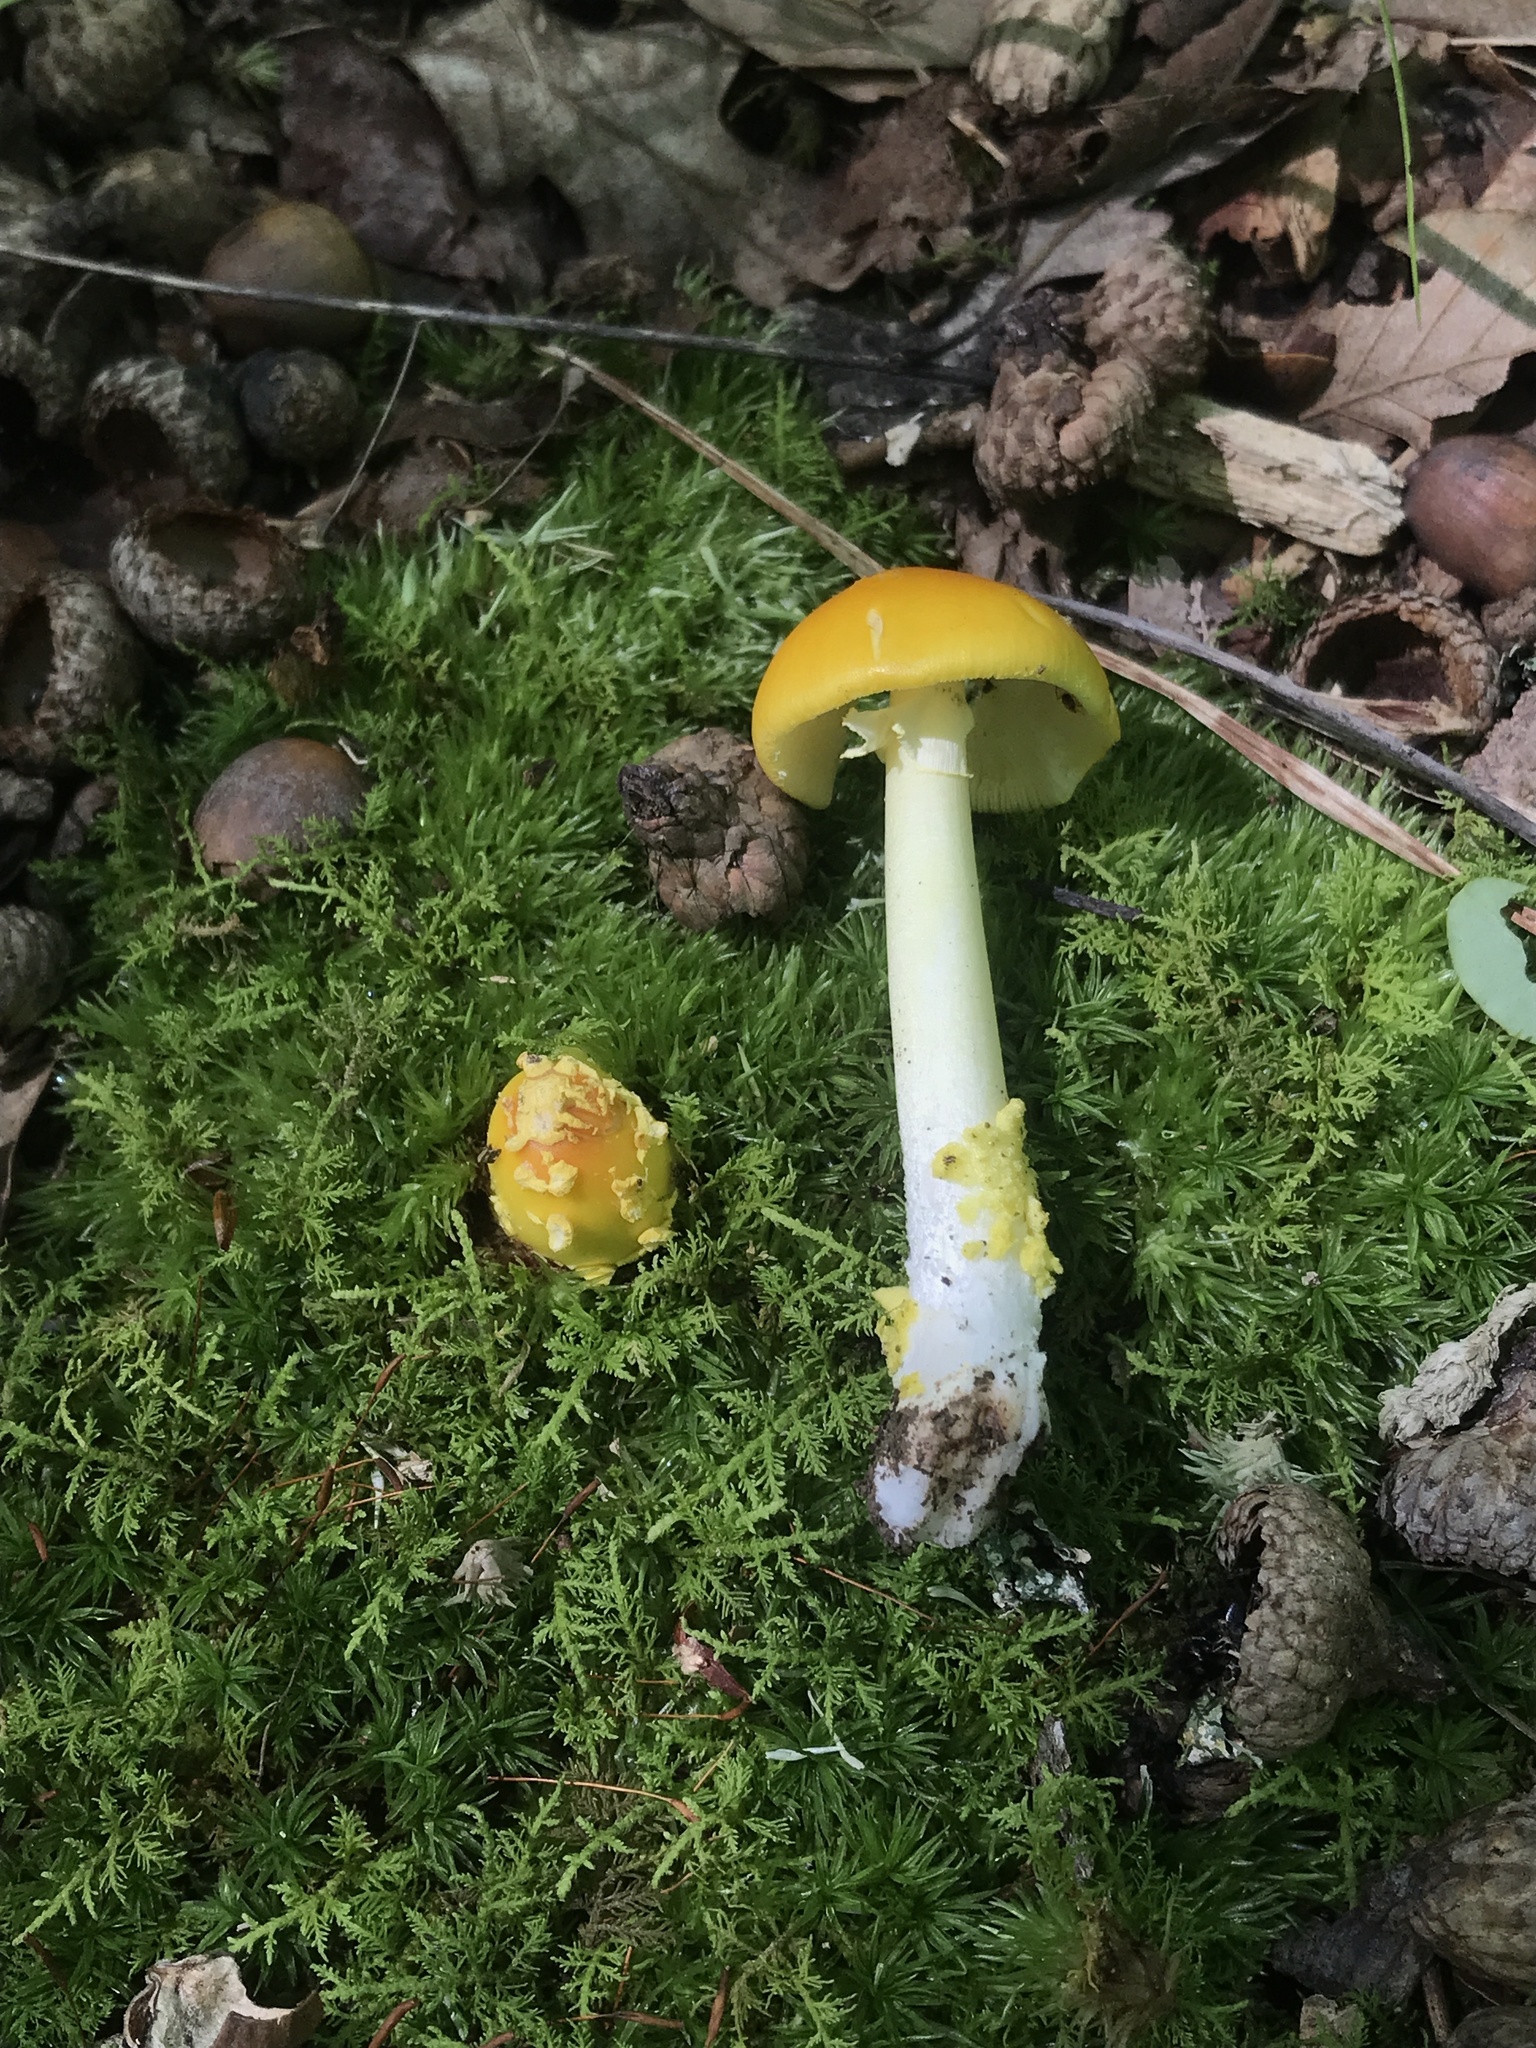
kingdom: Fungi
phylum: Basidiomycota
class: Agaricomycetes
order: Agaricales
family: Amanitaceae
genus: Amanita
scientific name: Amanita flavoconia
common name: Yellow patches
